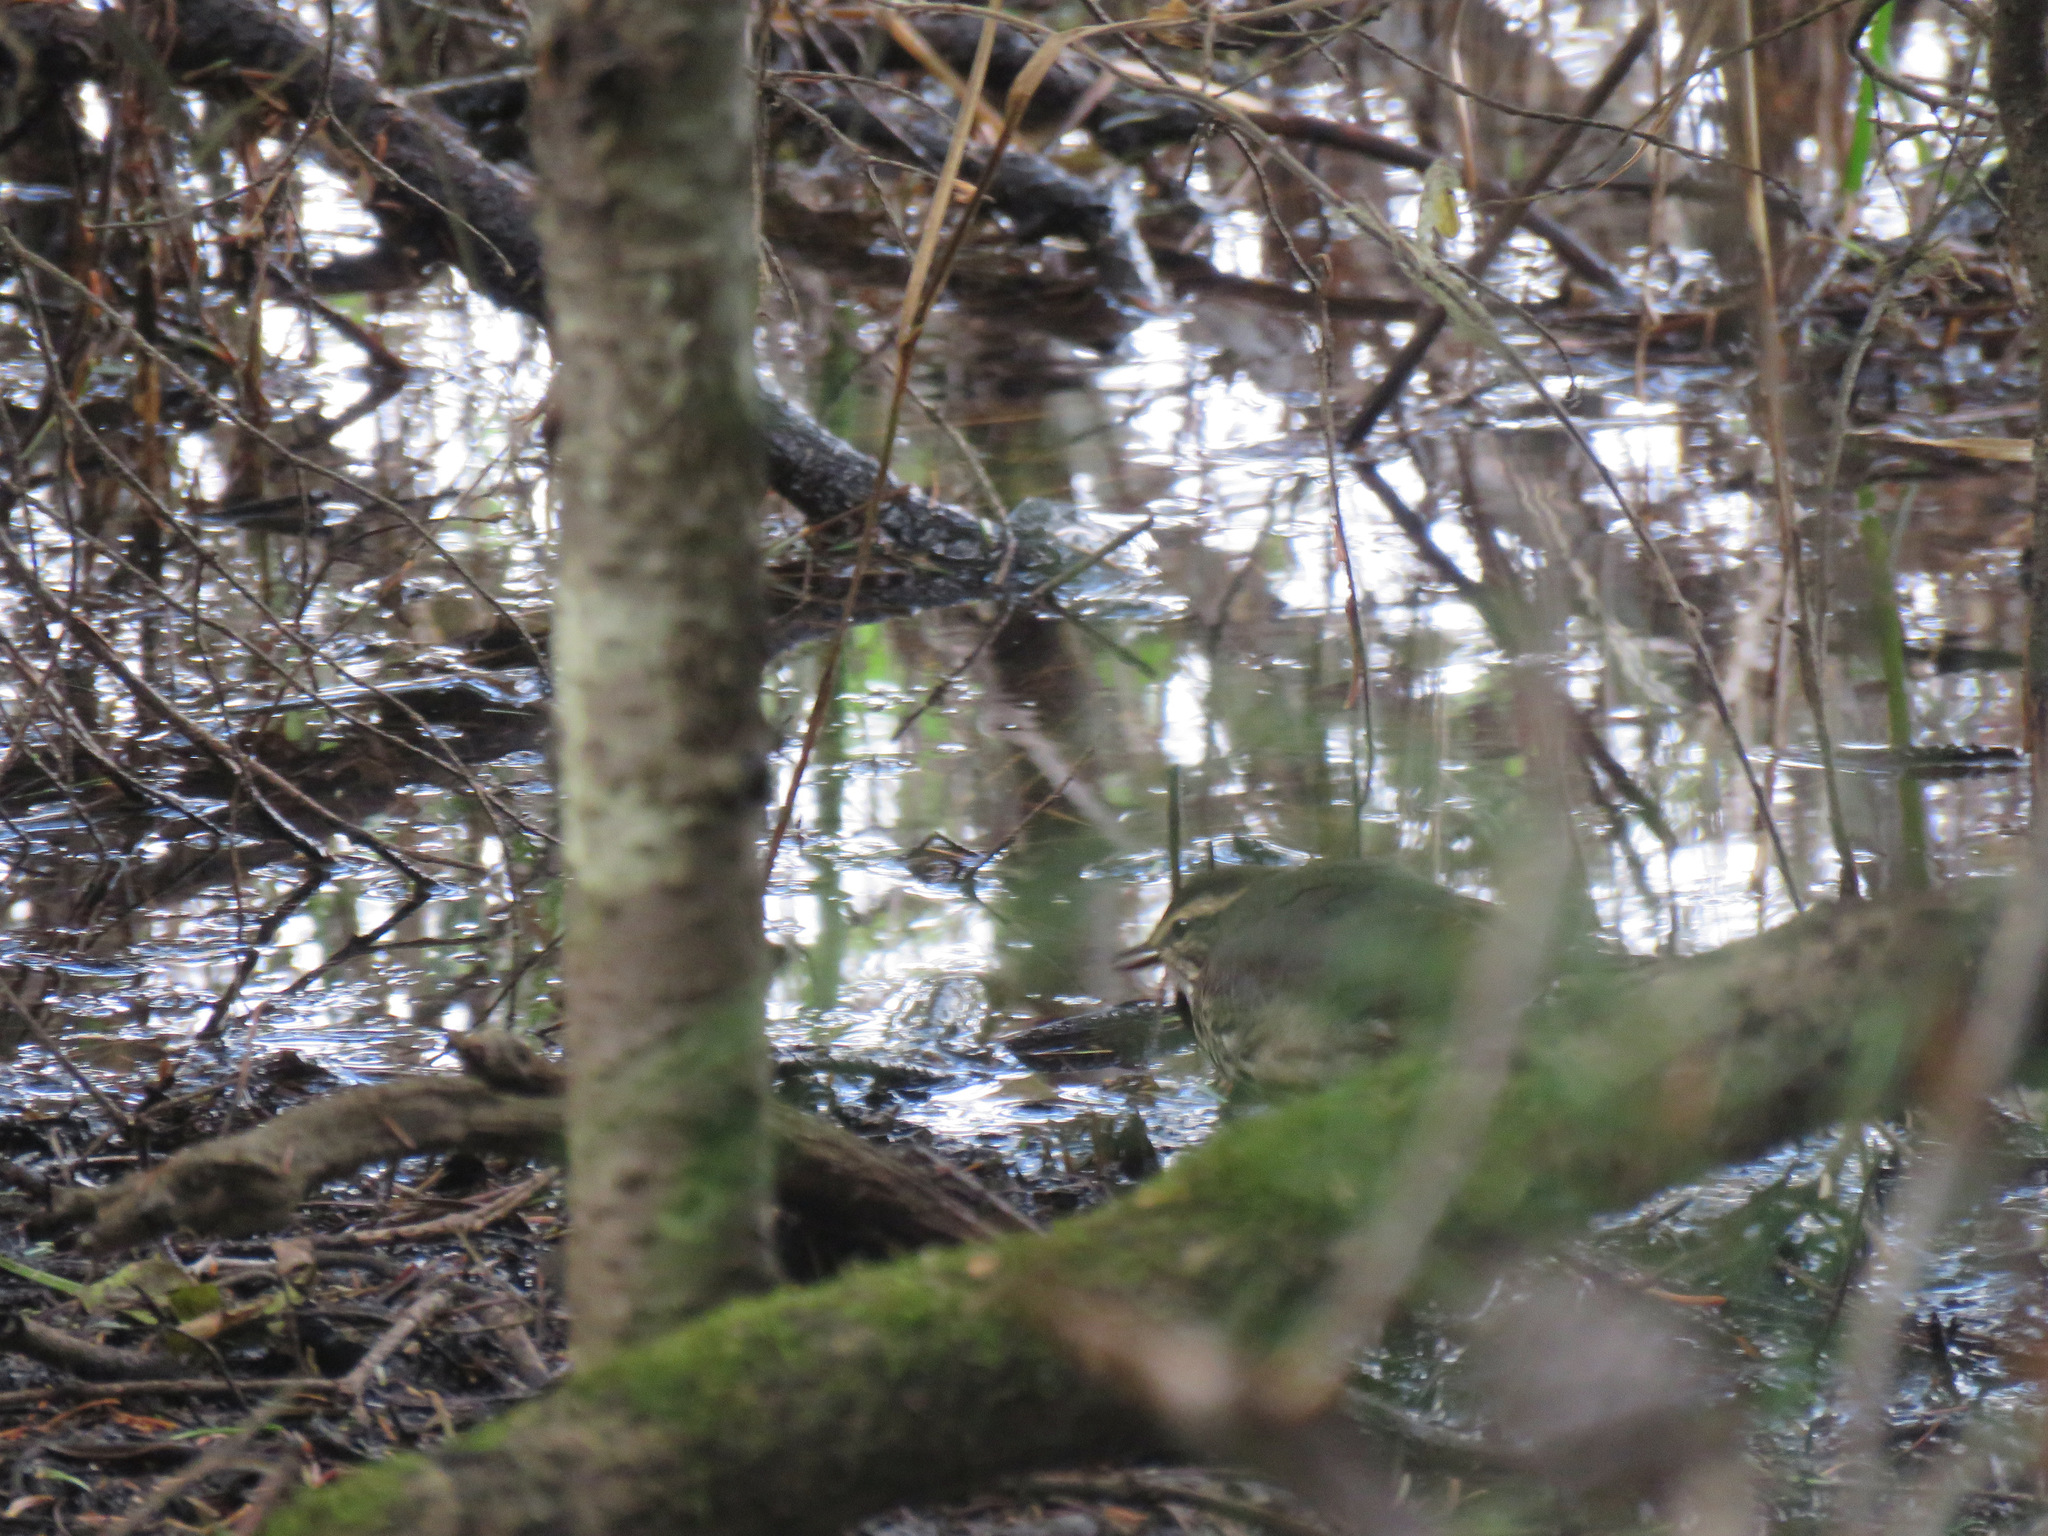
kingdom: Animalia
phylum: Chordata
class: Aves
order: Passeriformes
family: Parulidae
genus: Parkesia
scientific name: Parkesia noveboracensis
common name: Northern waterthrush
